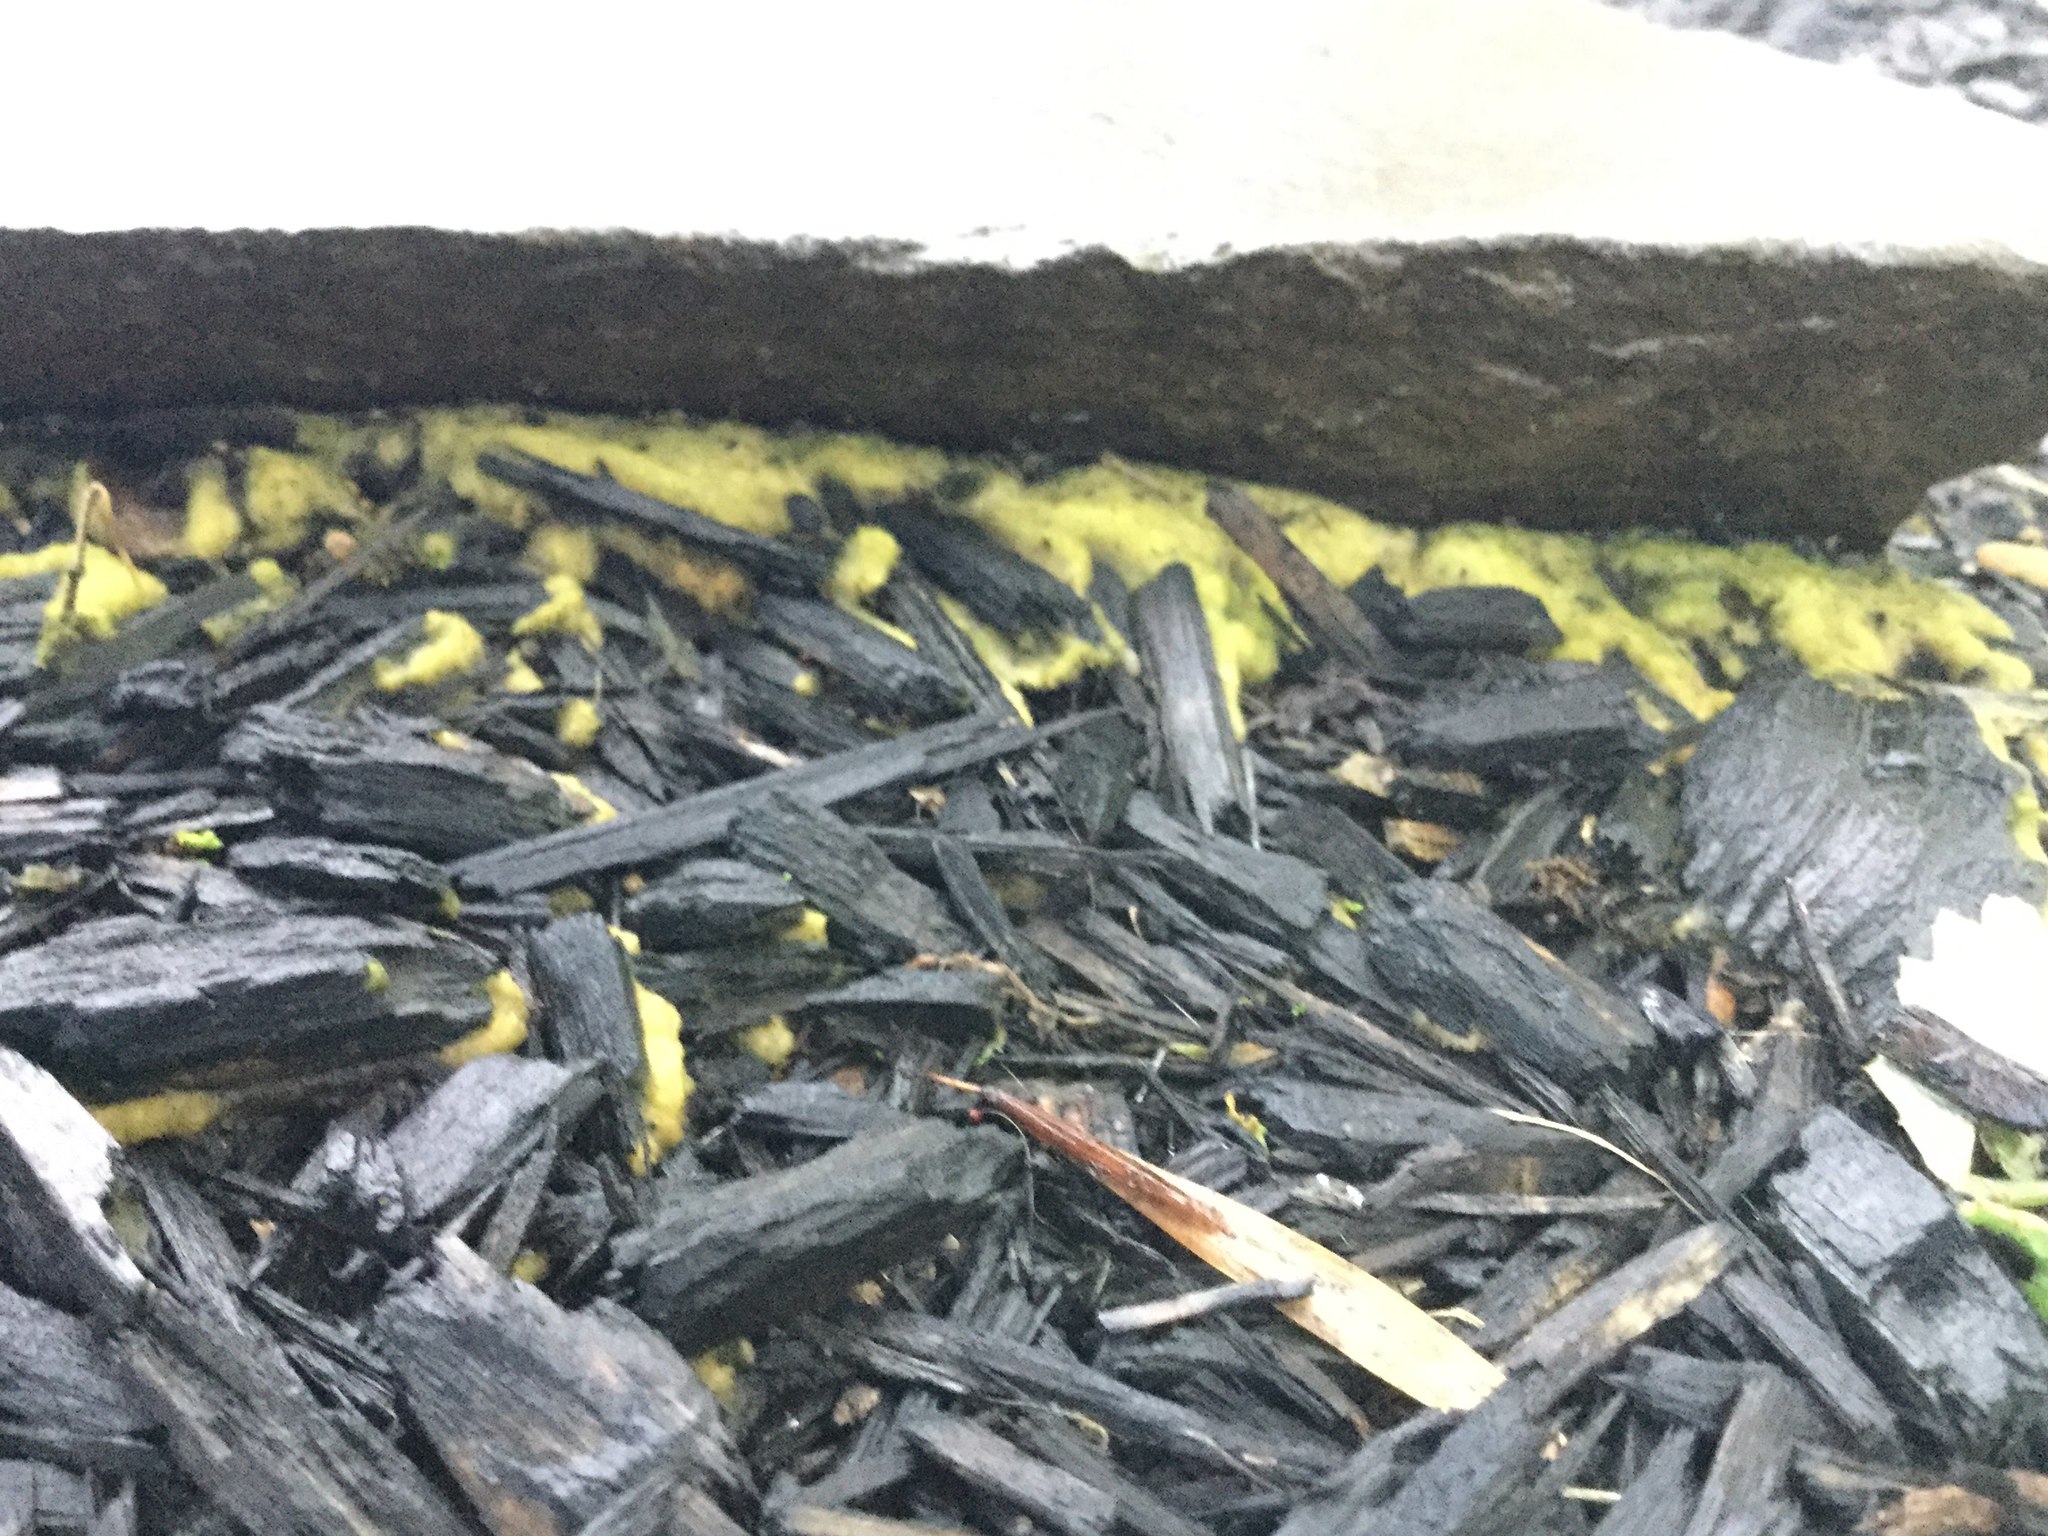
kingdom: Protozoa
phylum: Mycetozoa
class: Myxomycetes
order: Physarales
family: Physaraceae
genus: Fuligo
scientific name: Fuligo septica
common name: Dog vomit slime mold
